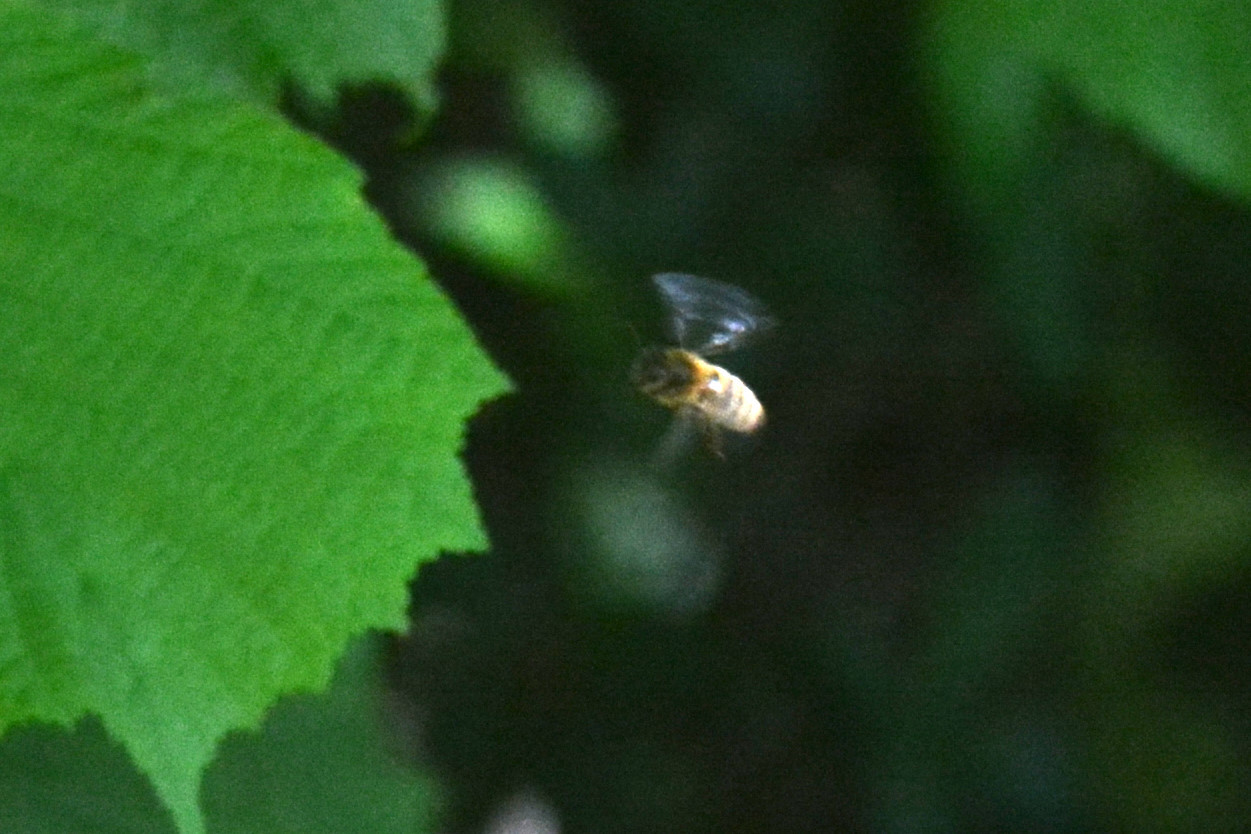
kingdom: Animalia
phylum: Arthropoda
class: Insecta
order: Hymenoptera
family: Apidae
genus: Apis
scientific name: Apis mellifera
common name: Honey bee
